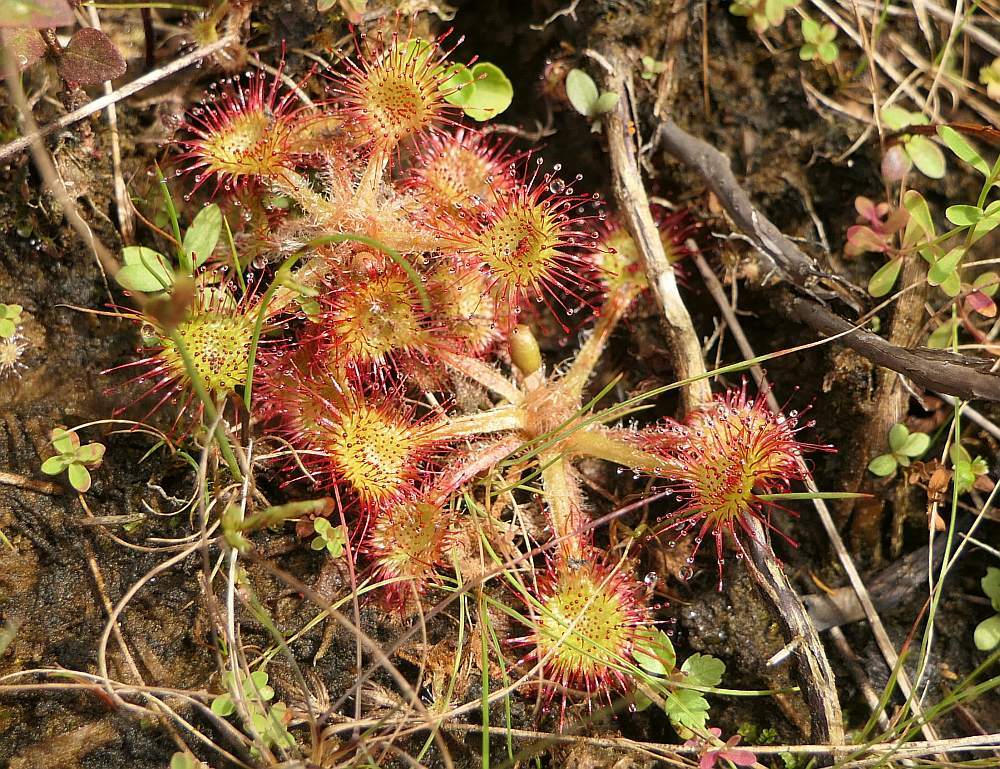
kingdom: Plantae
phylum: Tracheophyta
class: Magnoliopsida
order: Caryophyllales
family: Droseraceae
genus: Drosera
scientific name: Drosera rotundifolia
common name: Round-leaved sundew
